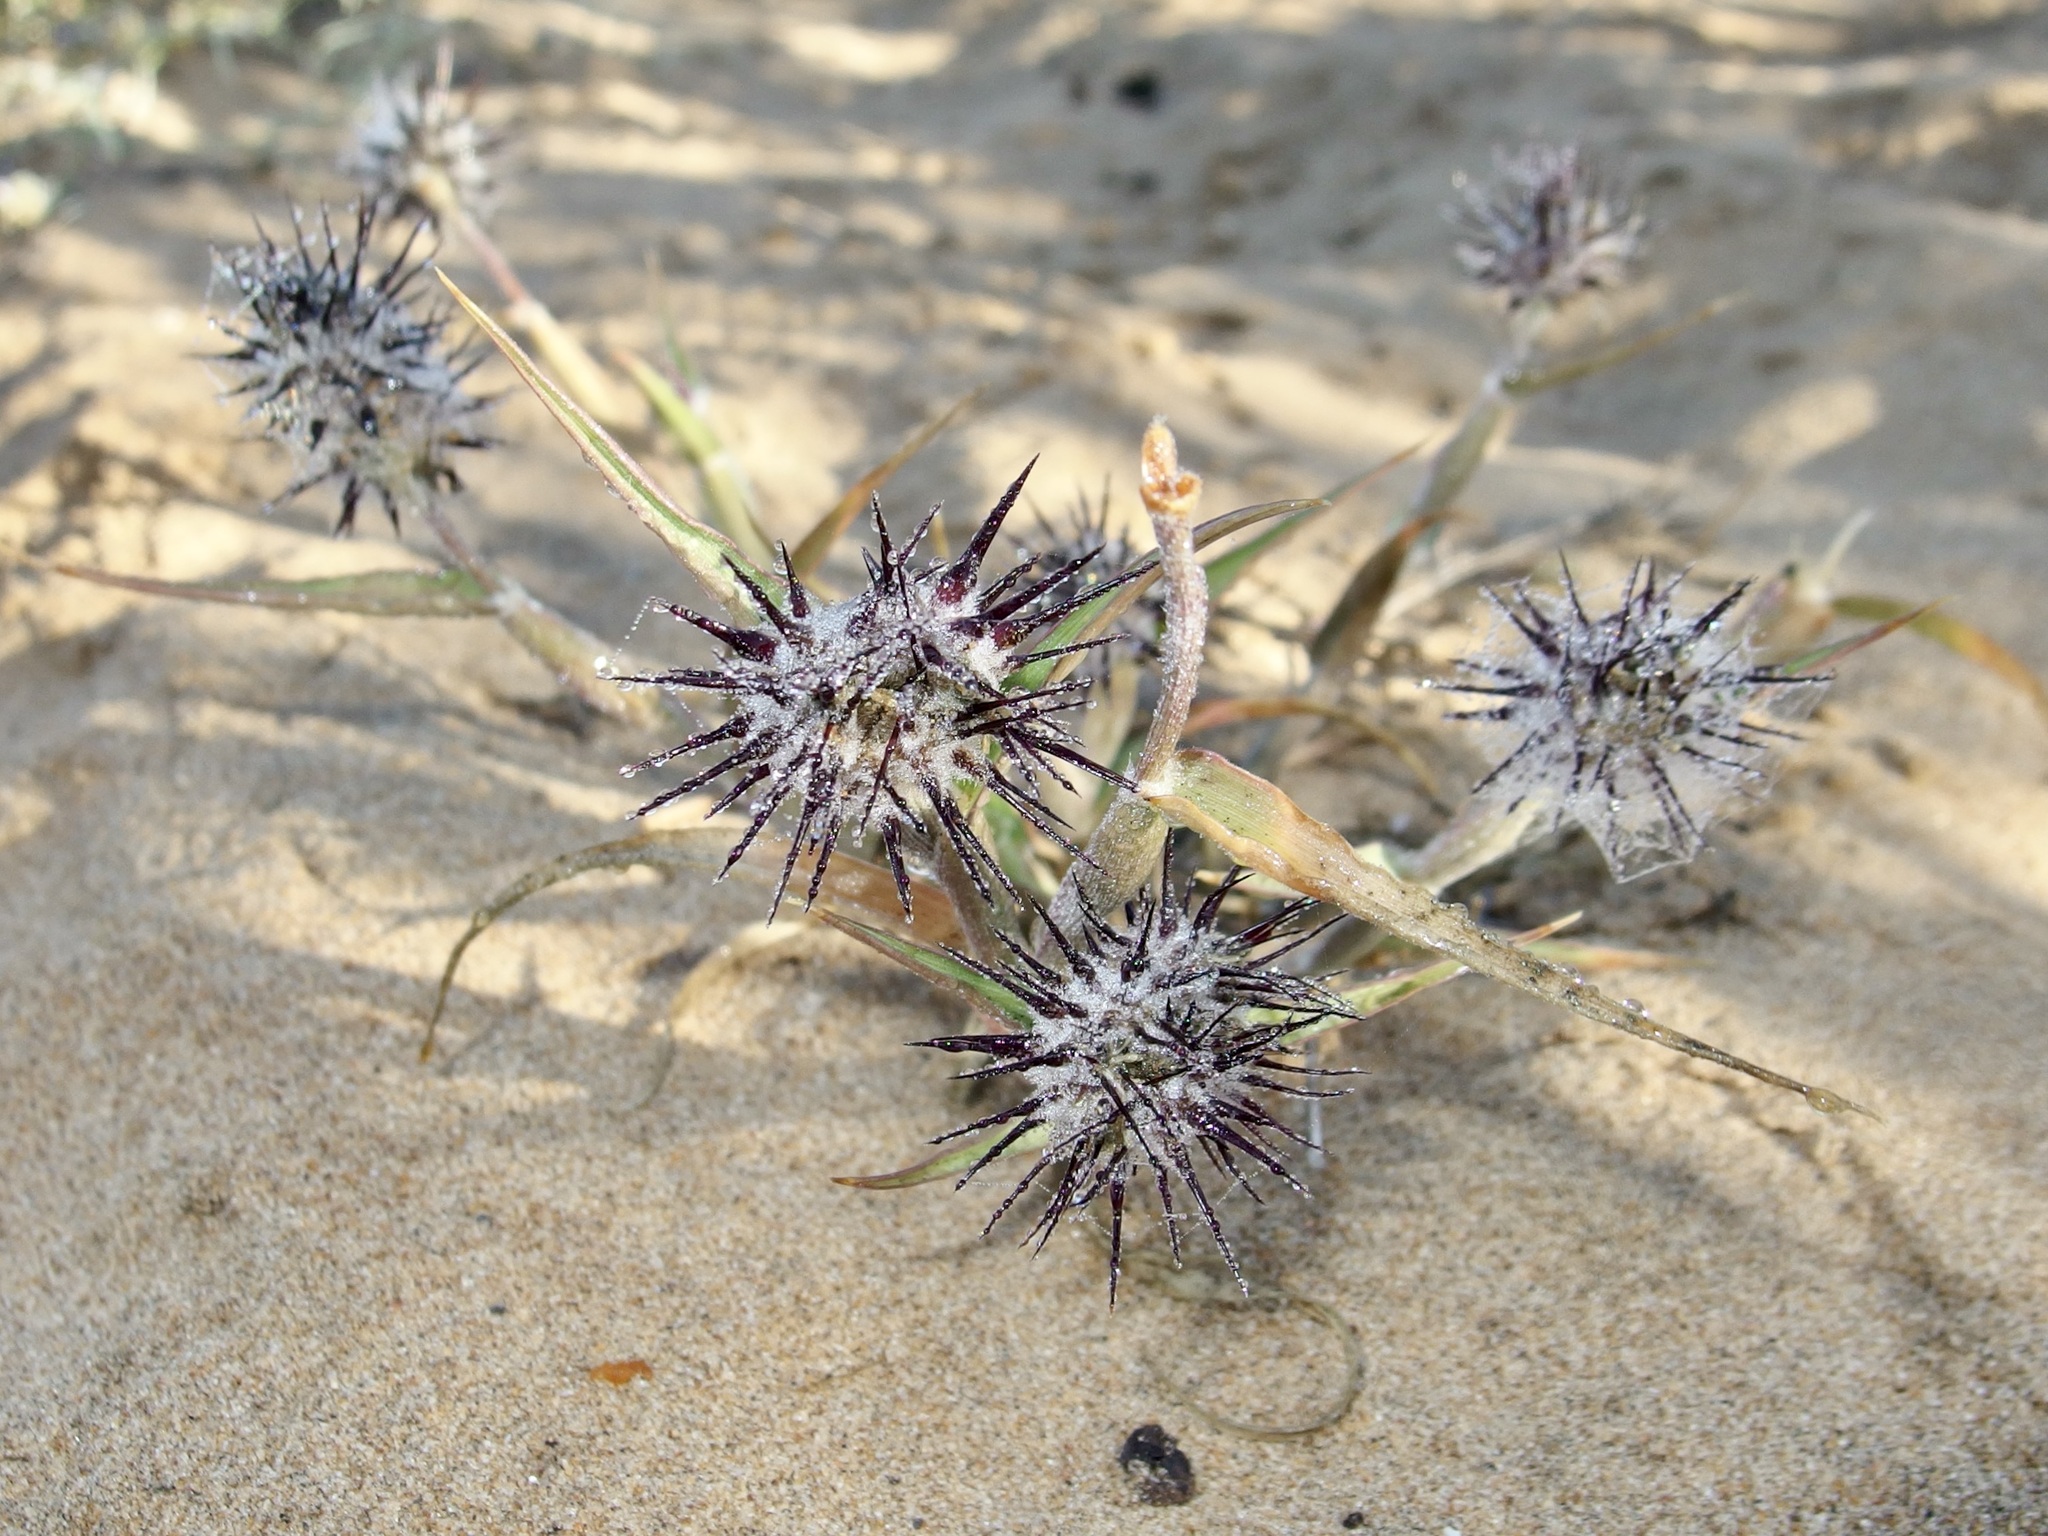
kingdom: Plantae
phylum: Tracheophyta
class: Liliopsida
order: Poales
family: Poaceae
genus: Cenchrus
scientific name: Cenchrus palmeri
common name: Giant sandbur
